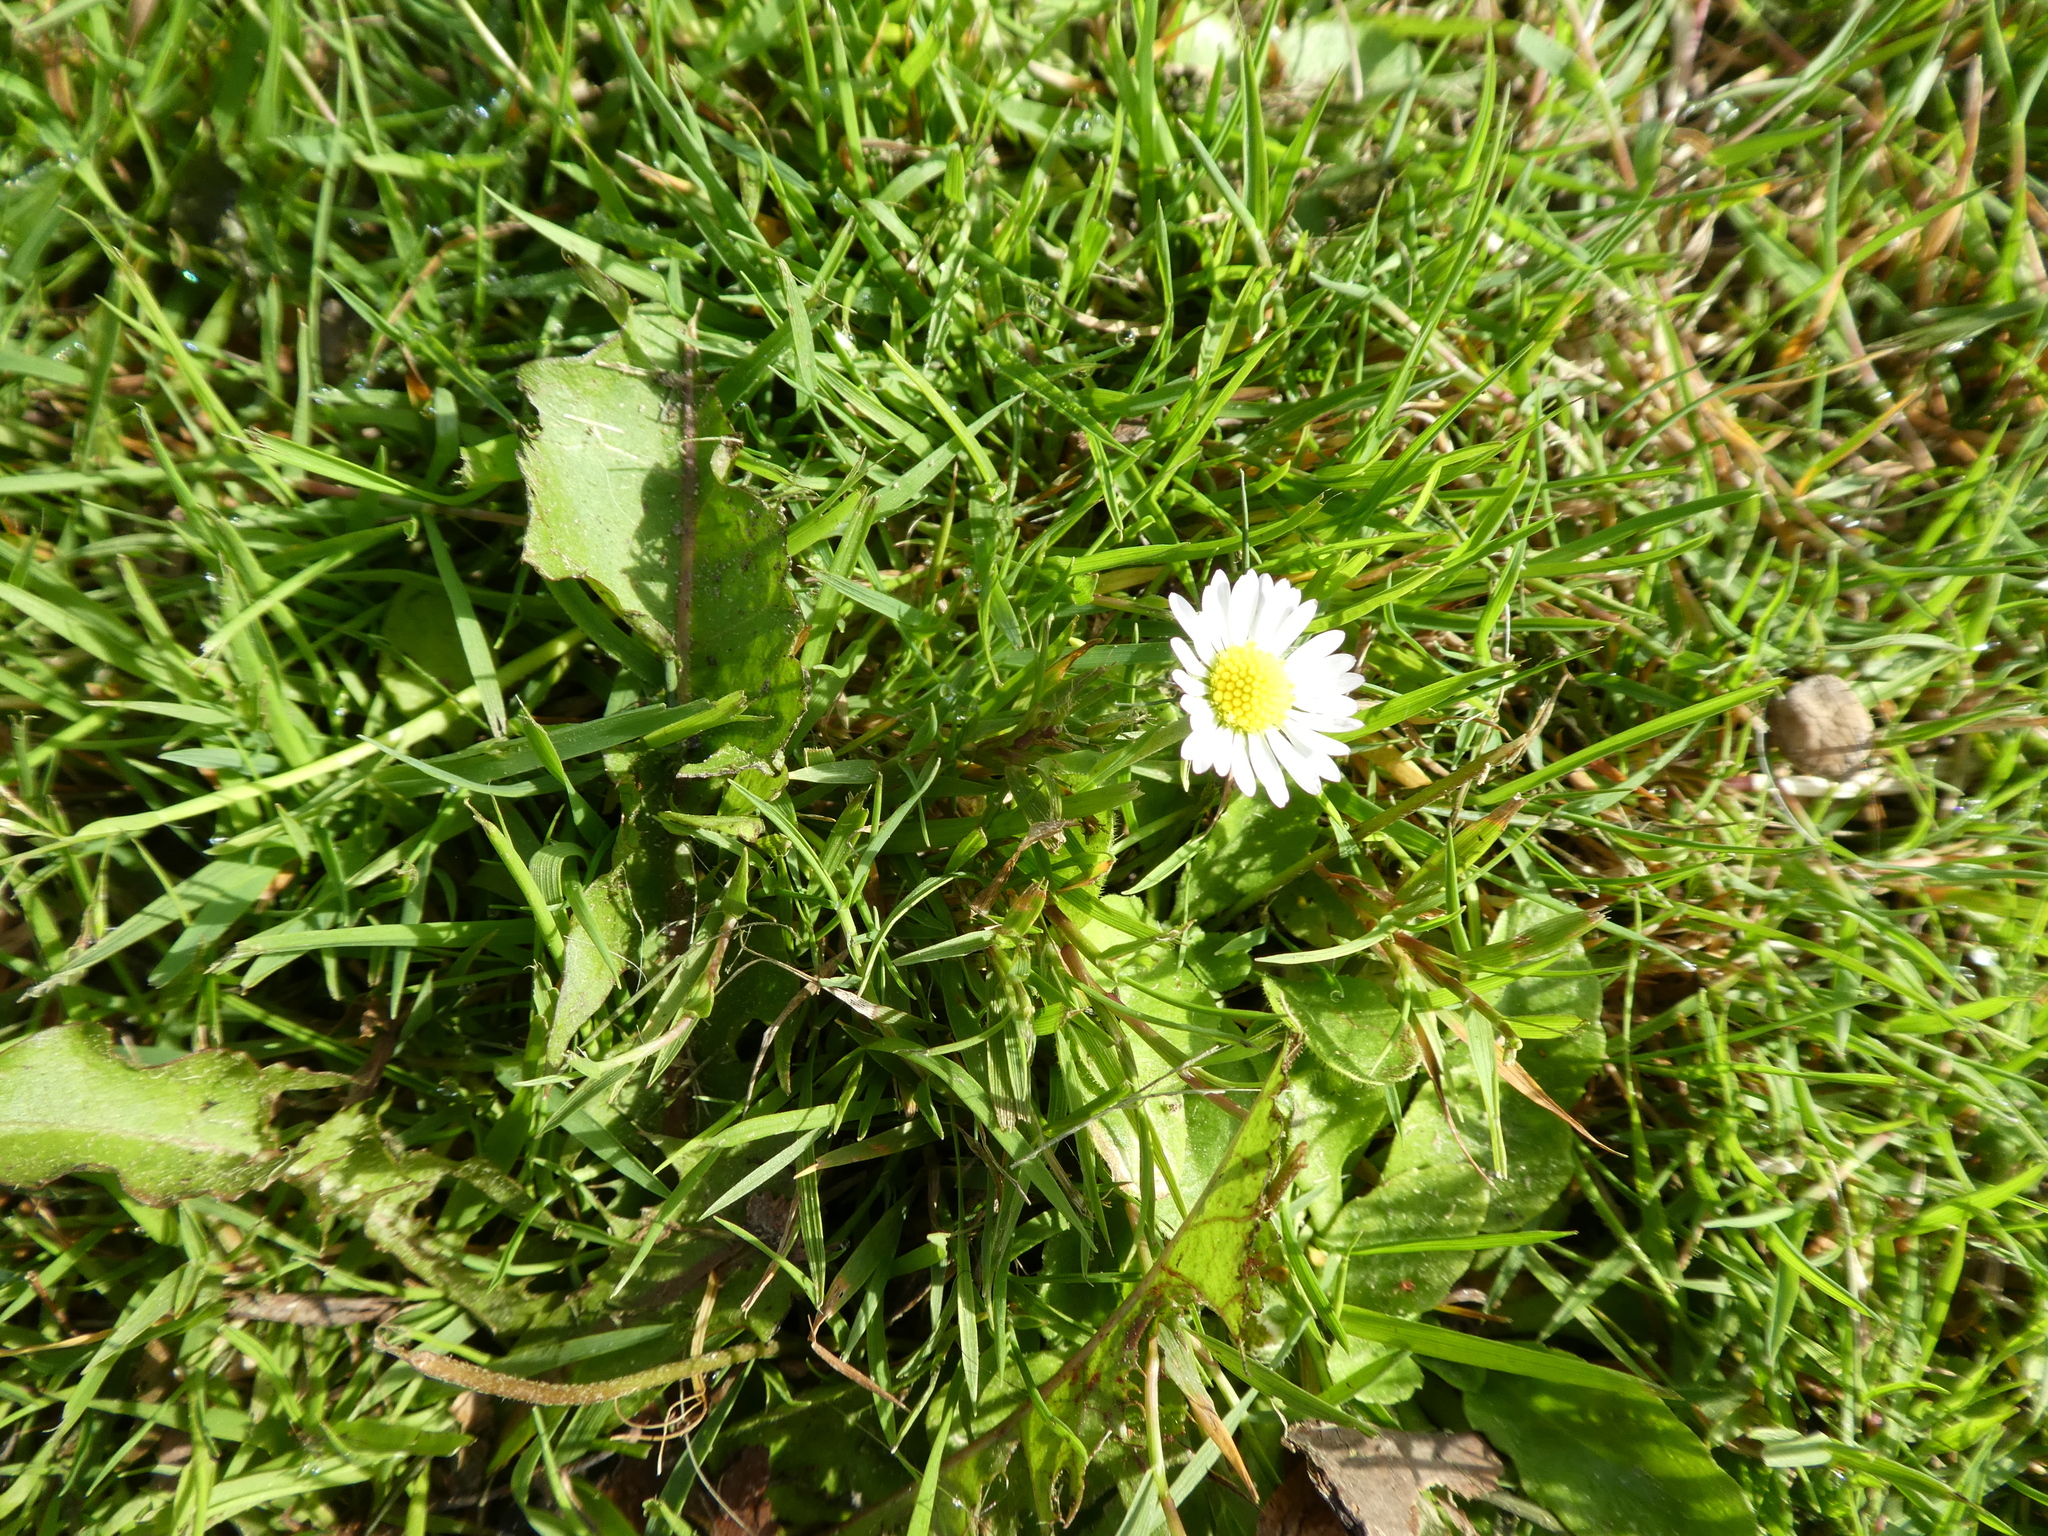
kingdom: Plantae
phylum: Tracheophyta
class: Magnoliopsida
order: Asterales
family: Asteraceae
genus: Bellis
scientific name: Bellis perennis
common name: Lawndaisy
